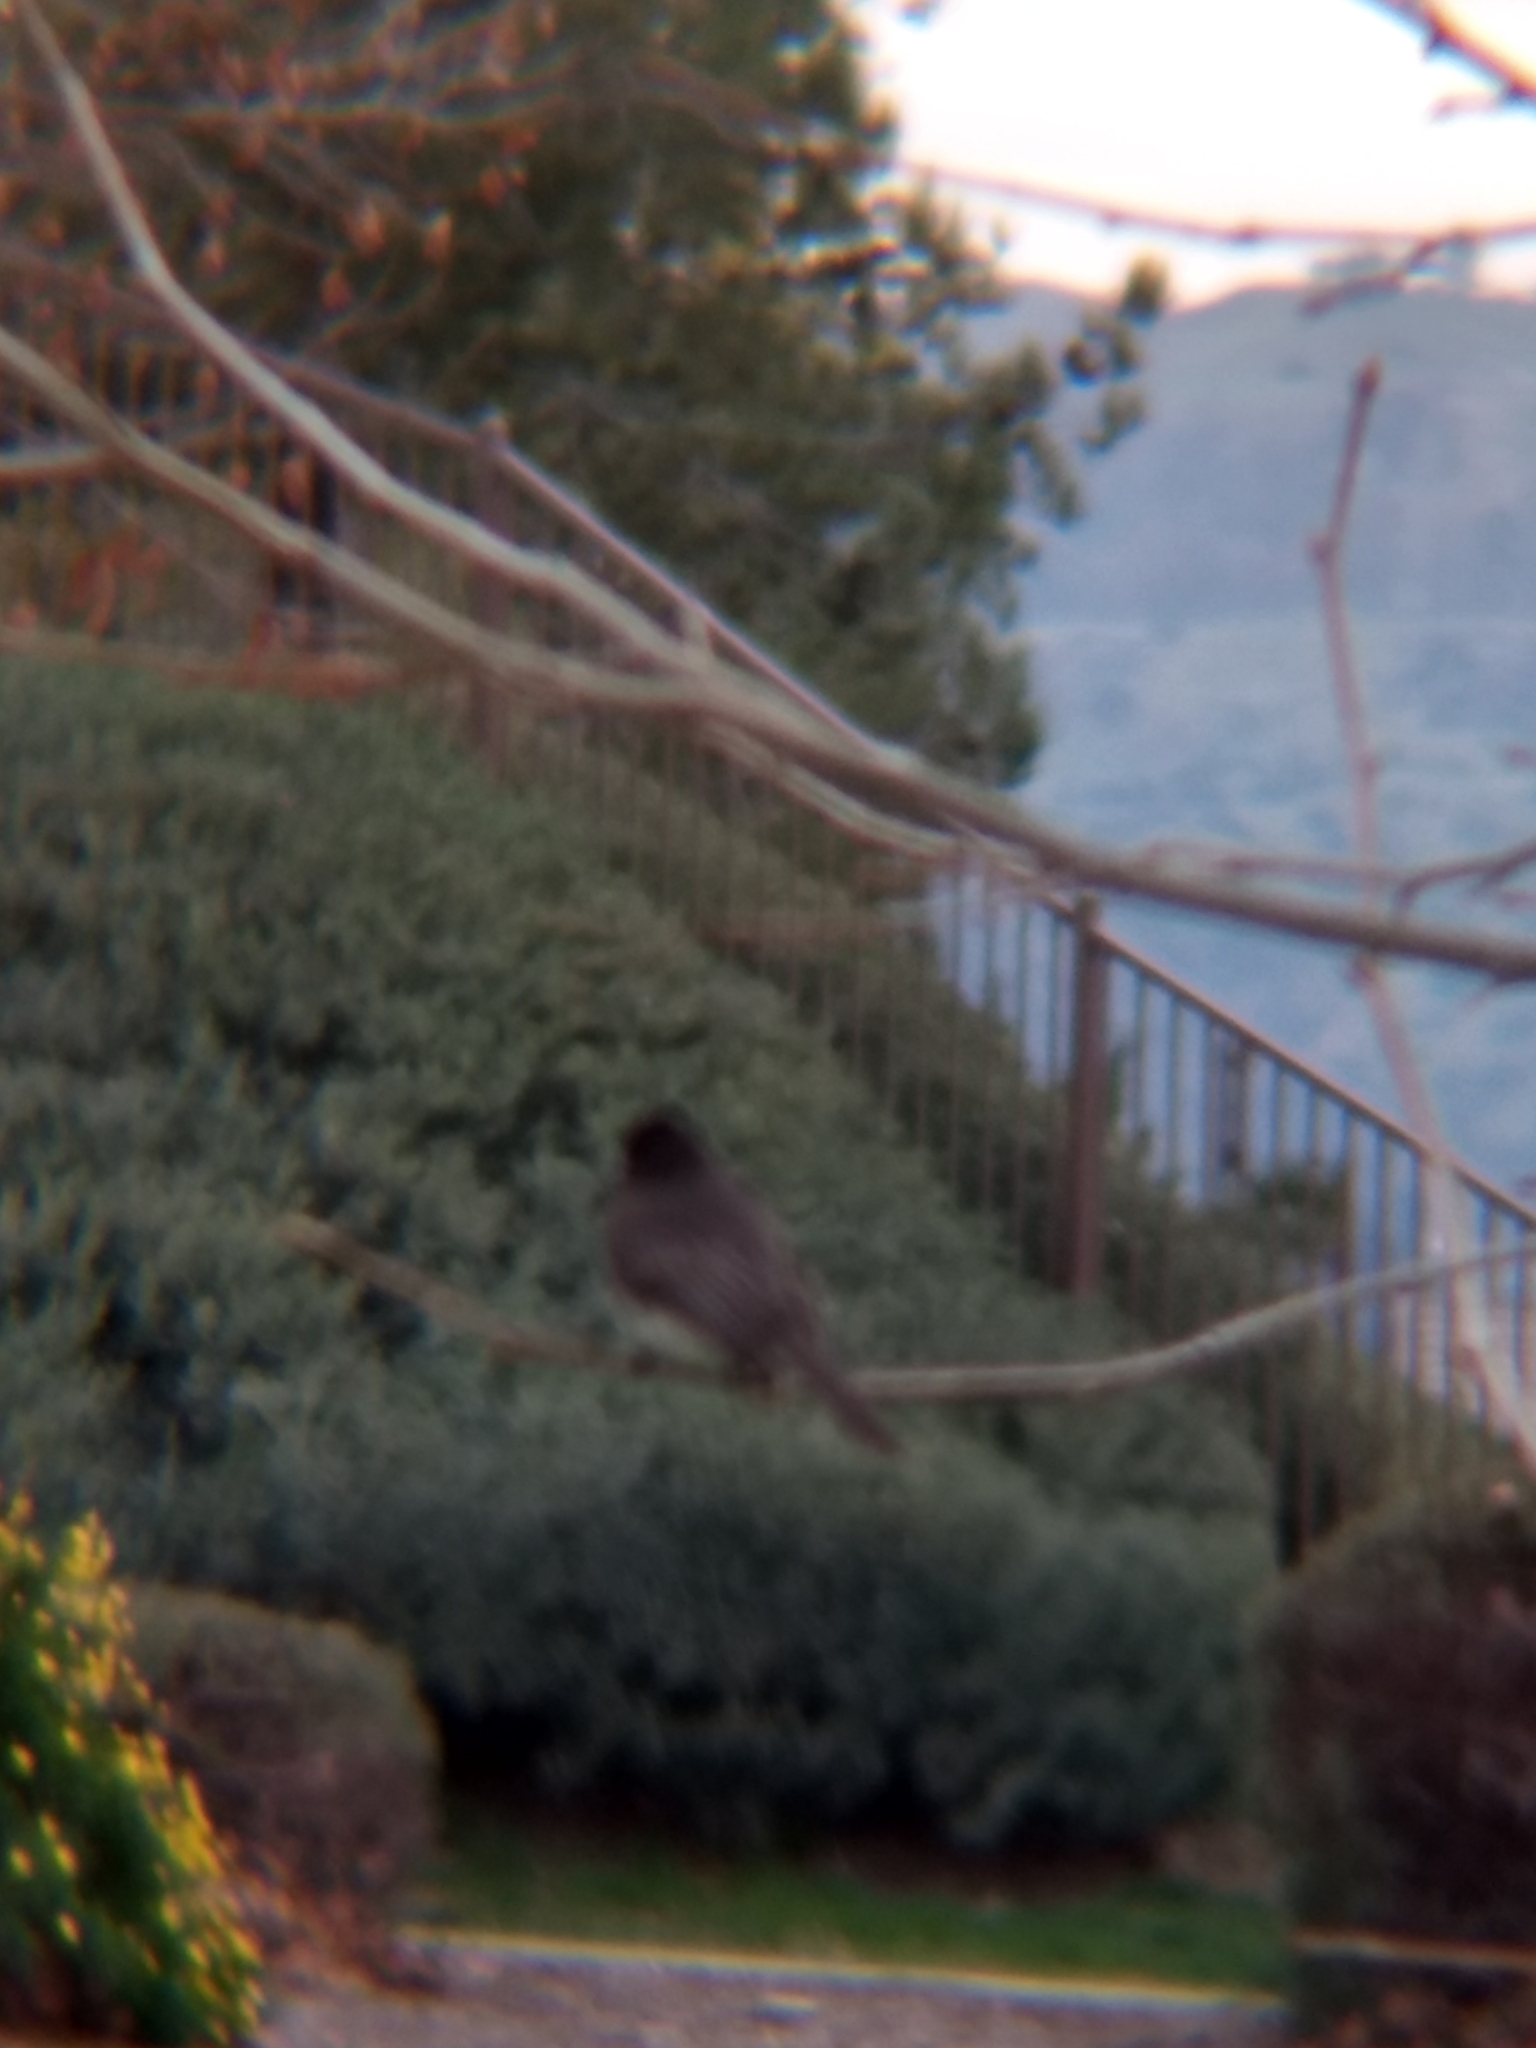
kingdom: Animalia
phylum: Chordata
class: Aves
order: Passeriformes
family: Tyrannidae
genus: Sayornis
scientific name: Sayornis nigricans
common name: Black phoebe
